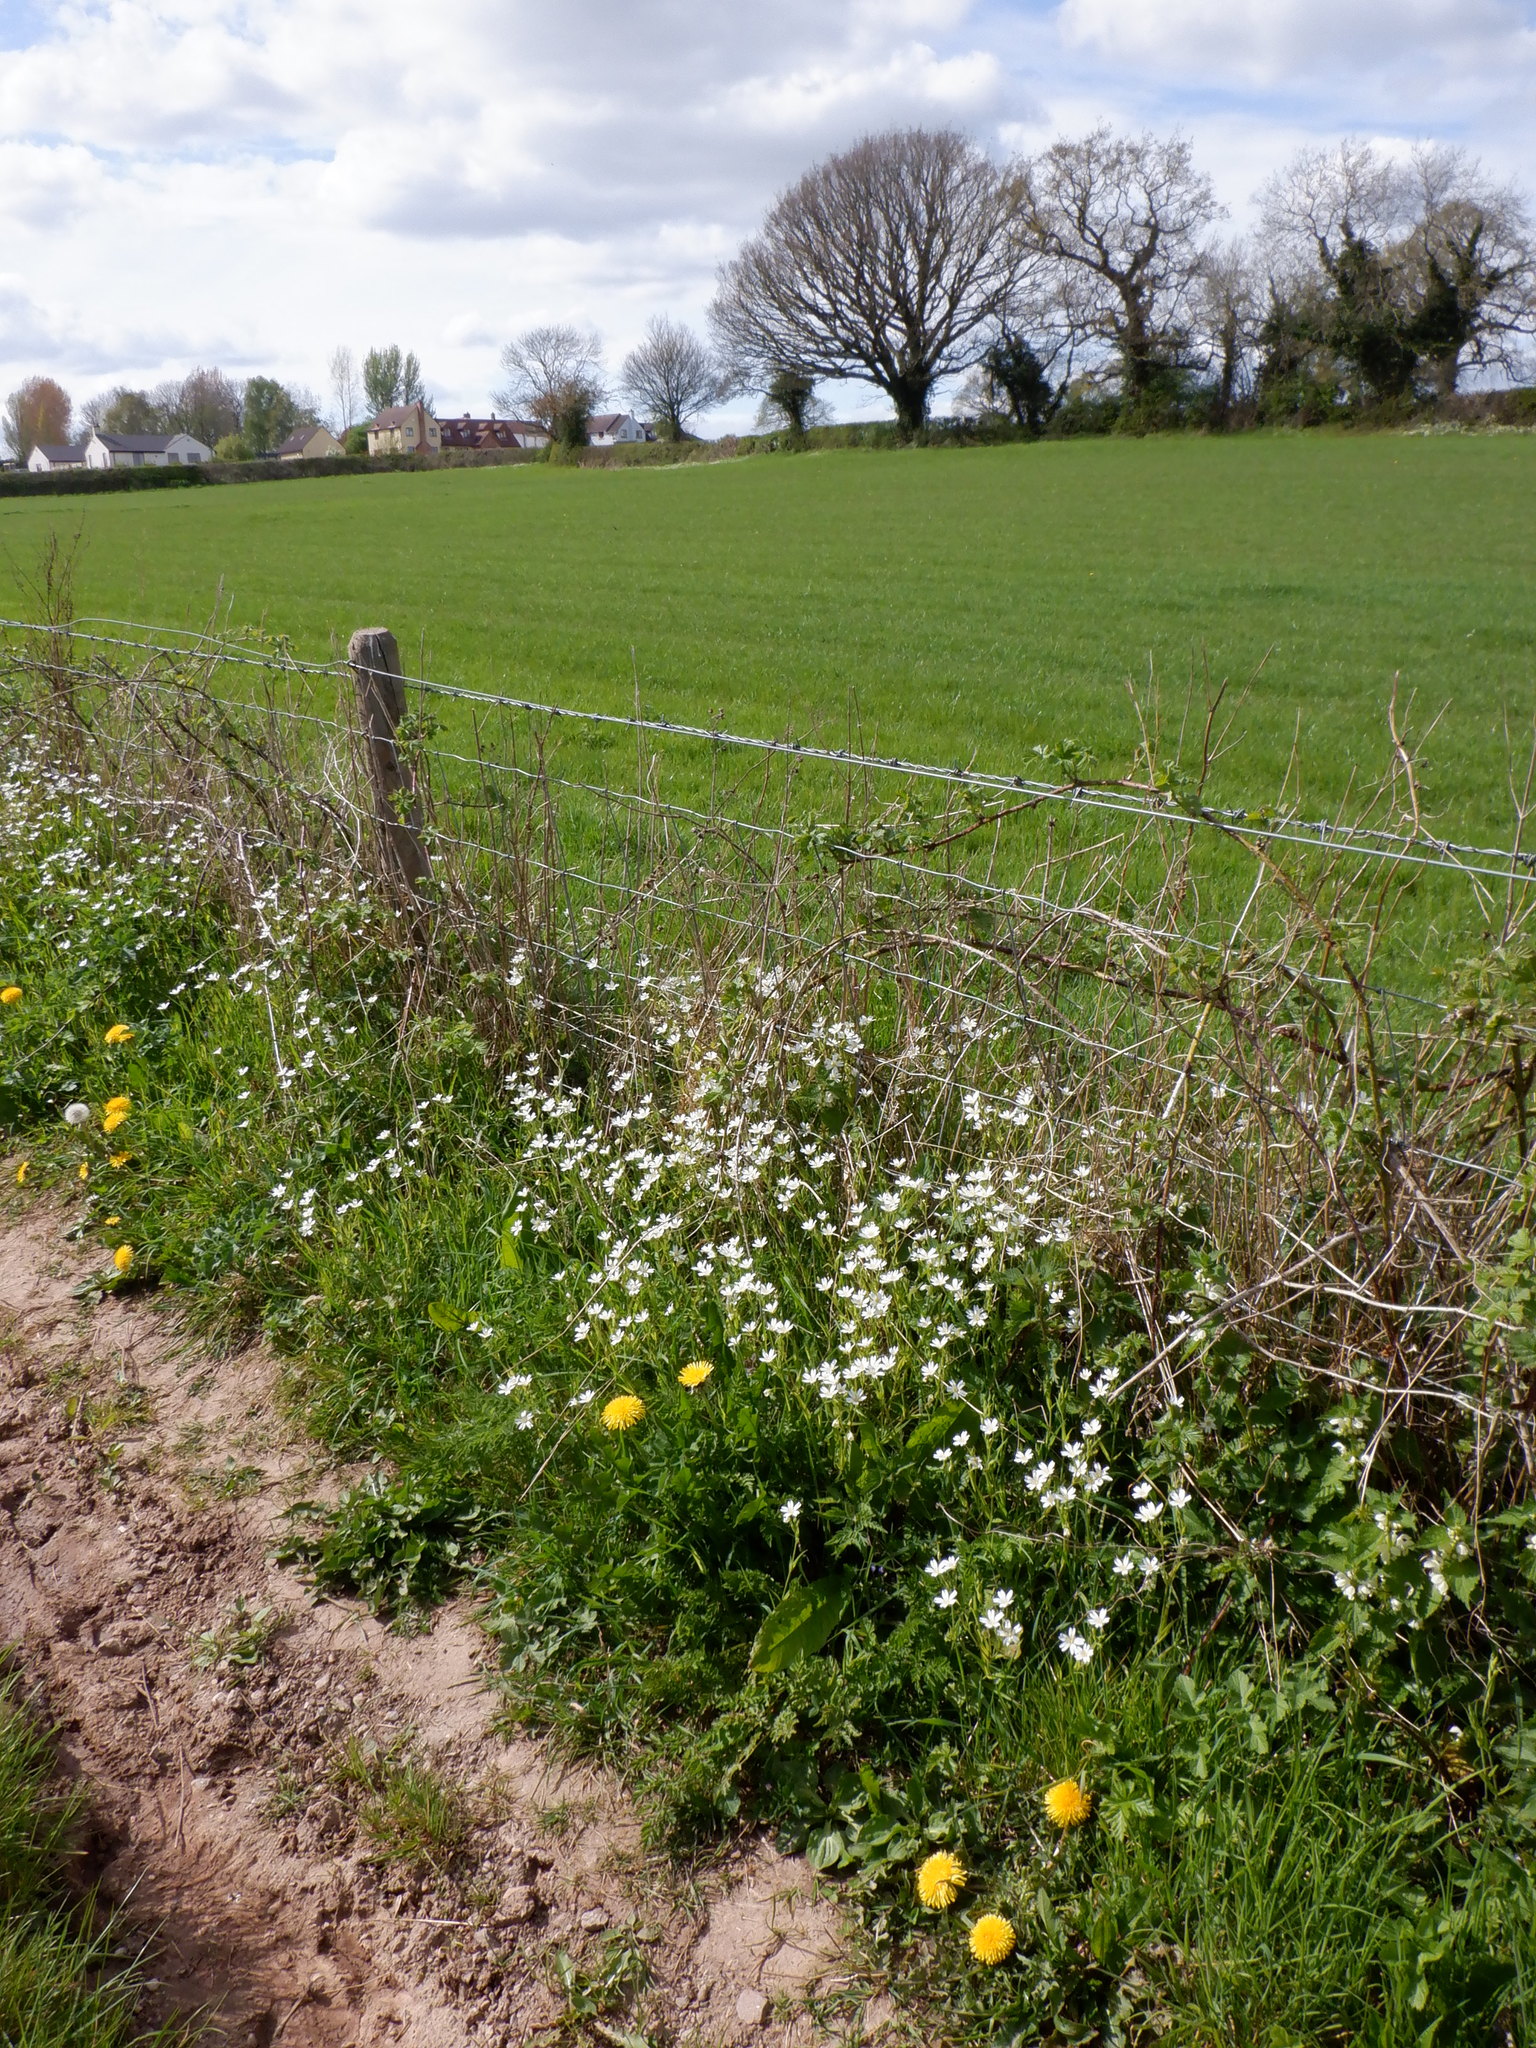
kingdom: Plantae
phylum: Tracheophyta
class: Magnoliopsida
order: Caryophyllales
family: Caryophyllaceae
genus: Rabelera
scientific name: Rabelera holostea
